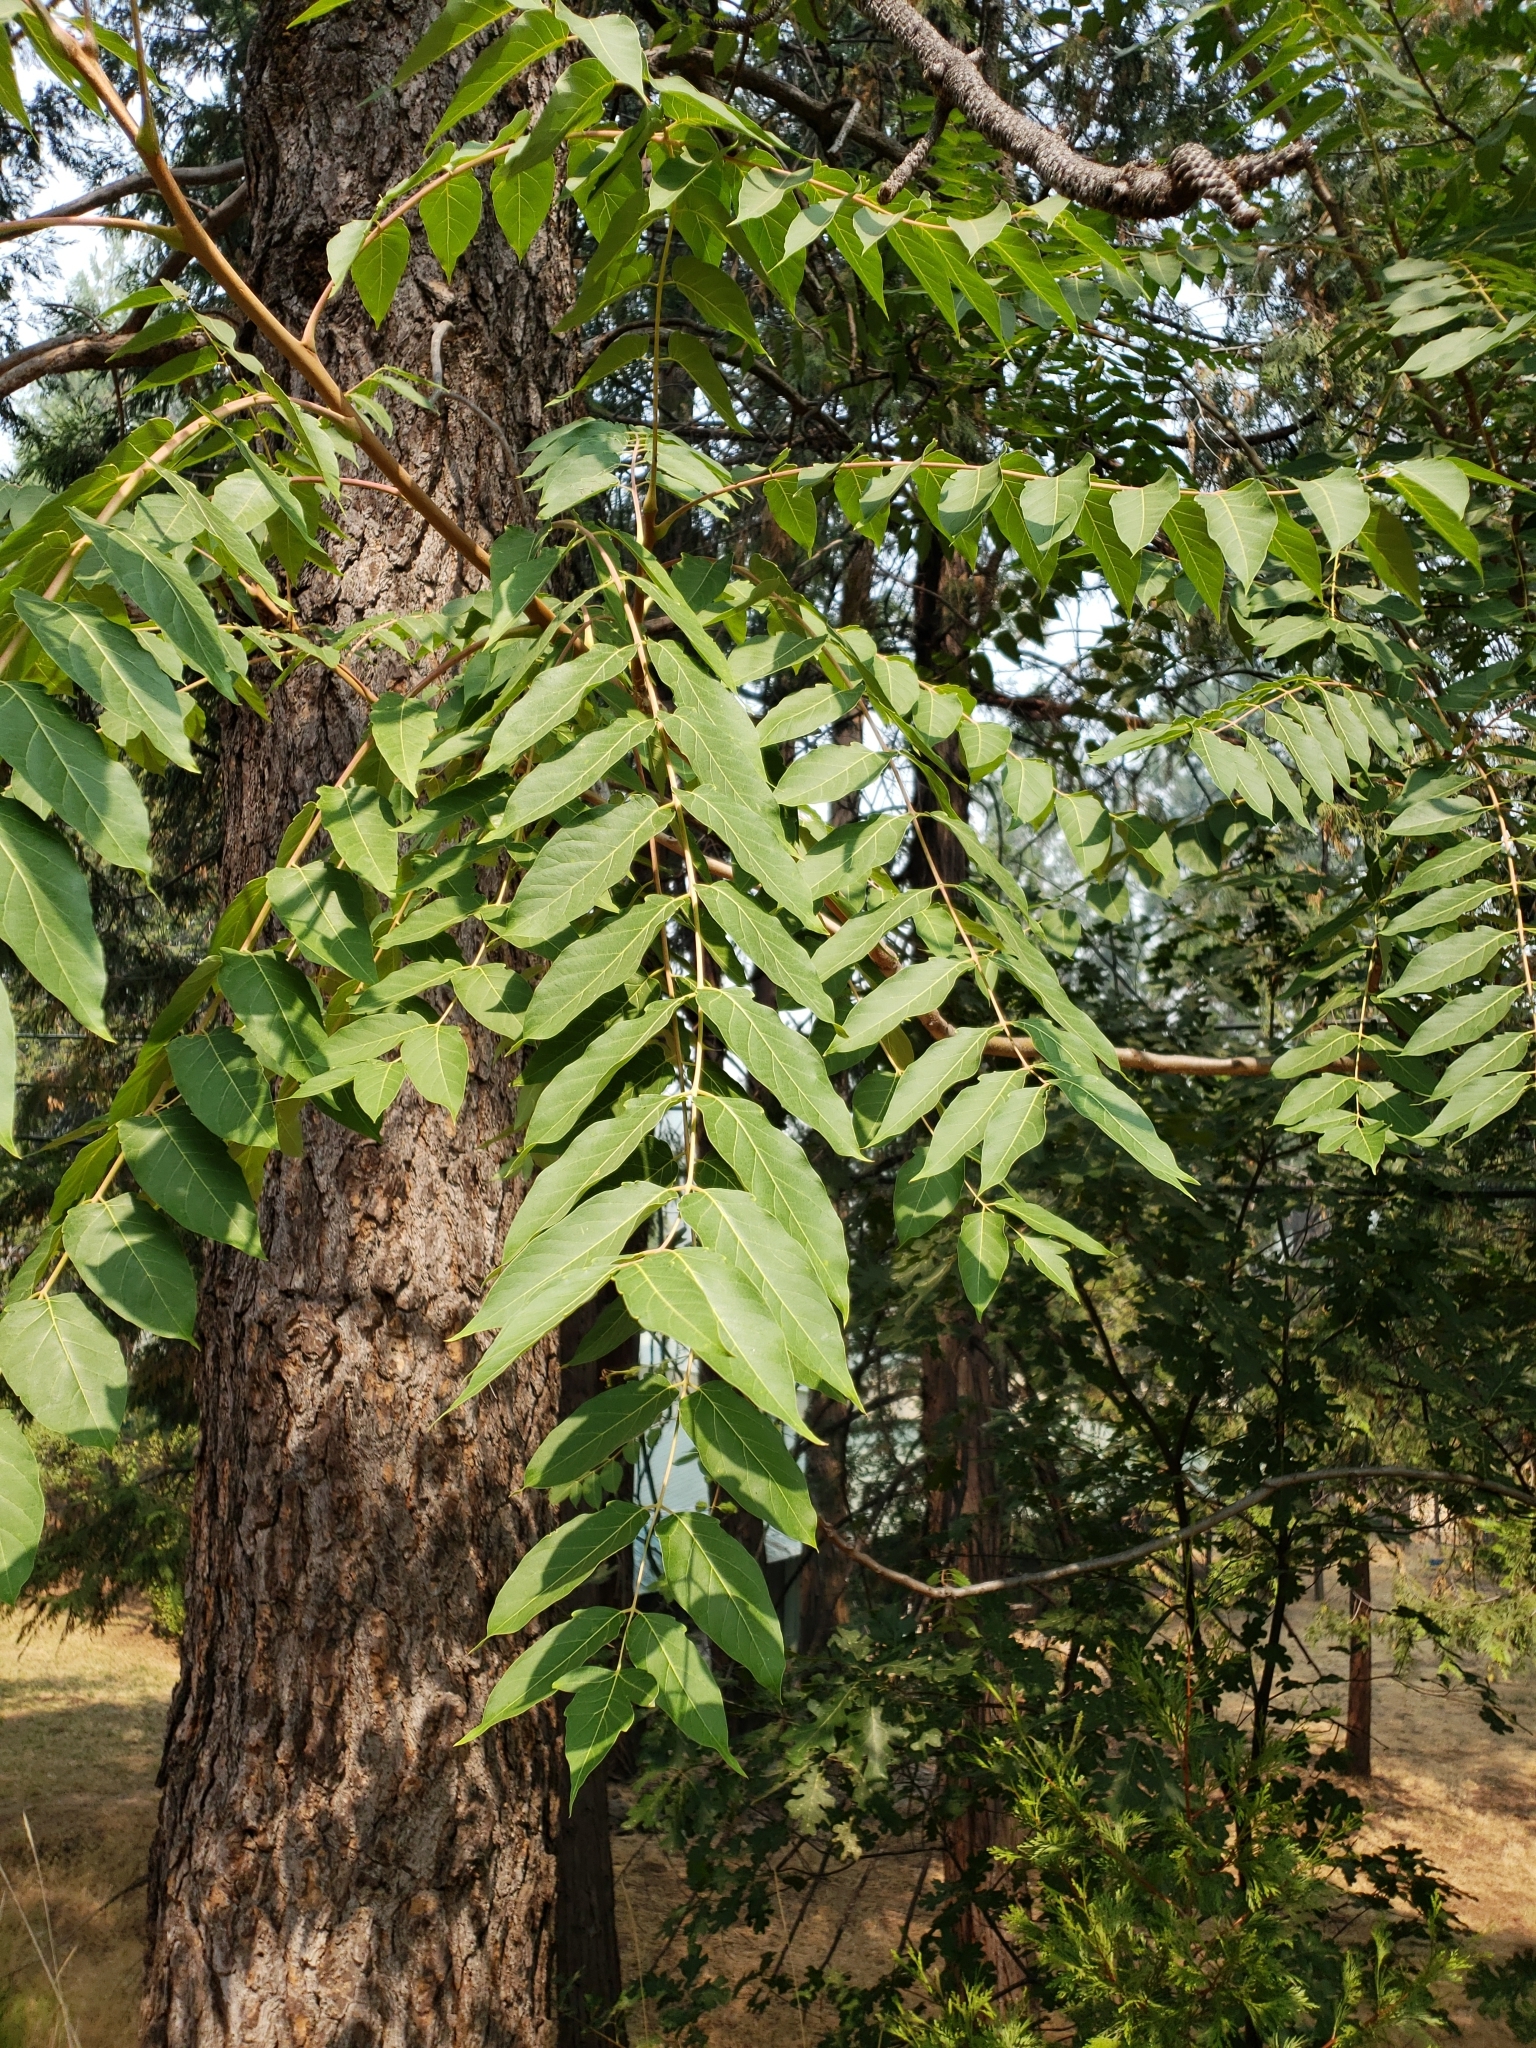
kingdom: Plantae
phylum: Tracheophyta
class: Magnoliopsida
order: Sapindales
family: Simaroubaceae
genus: Ailanthus
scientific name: Ailanthus altissima
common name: Tree-of-heaven
